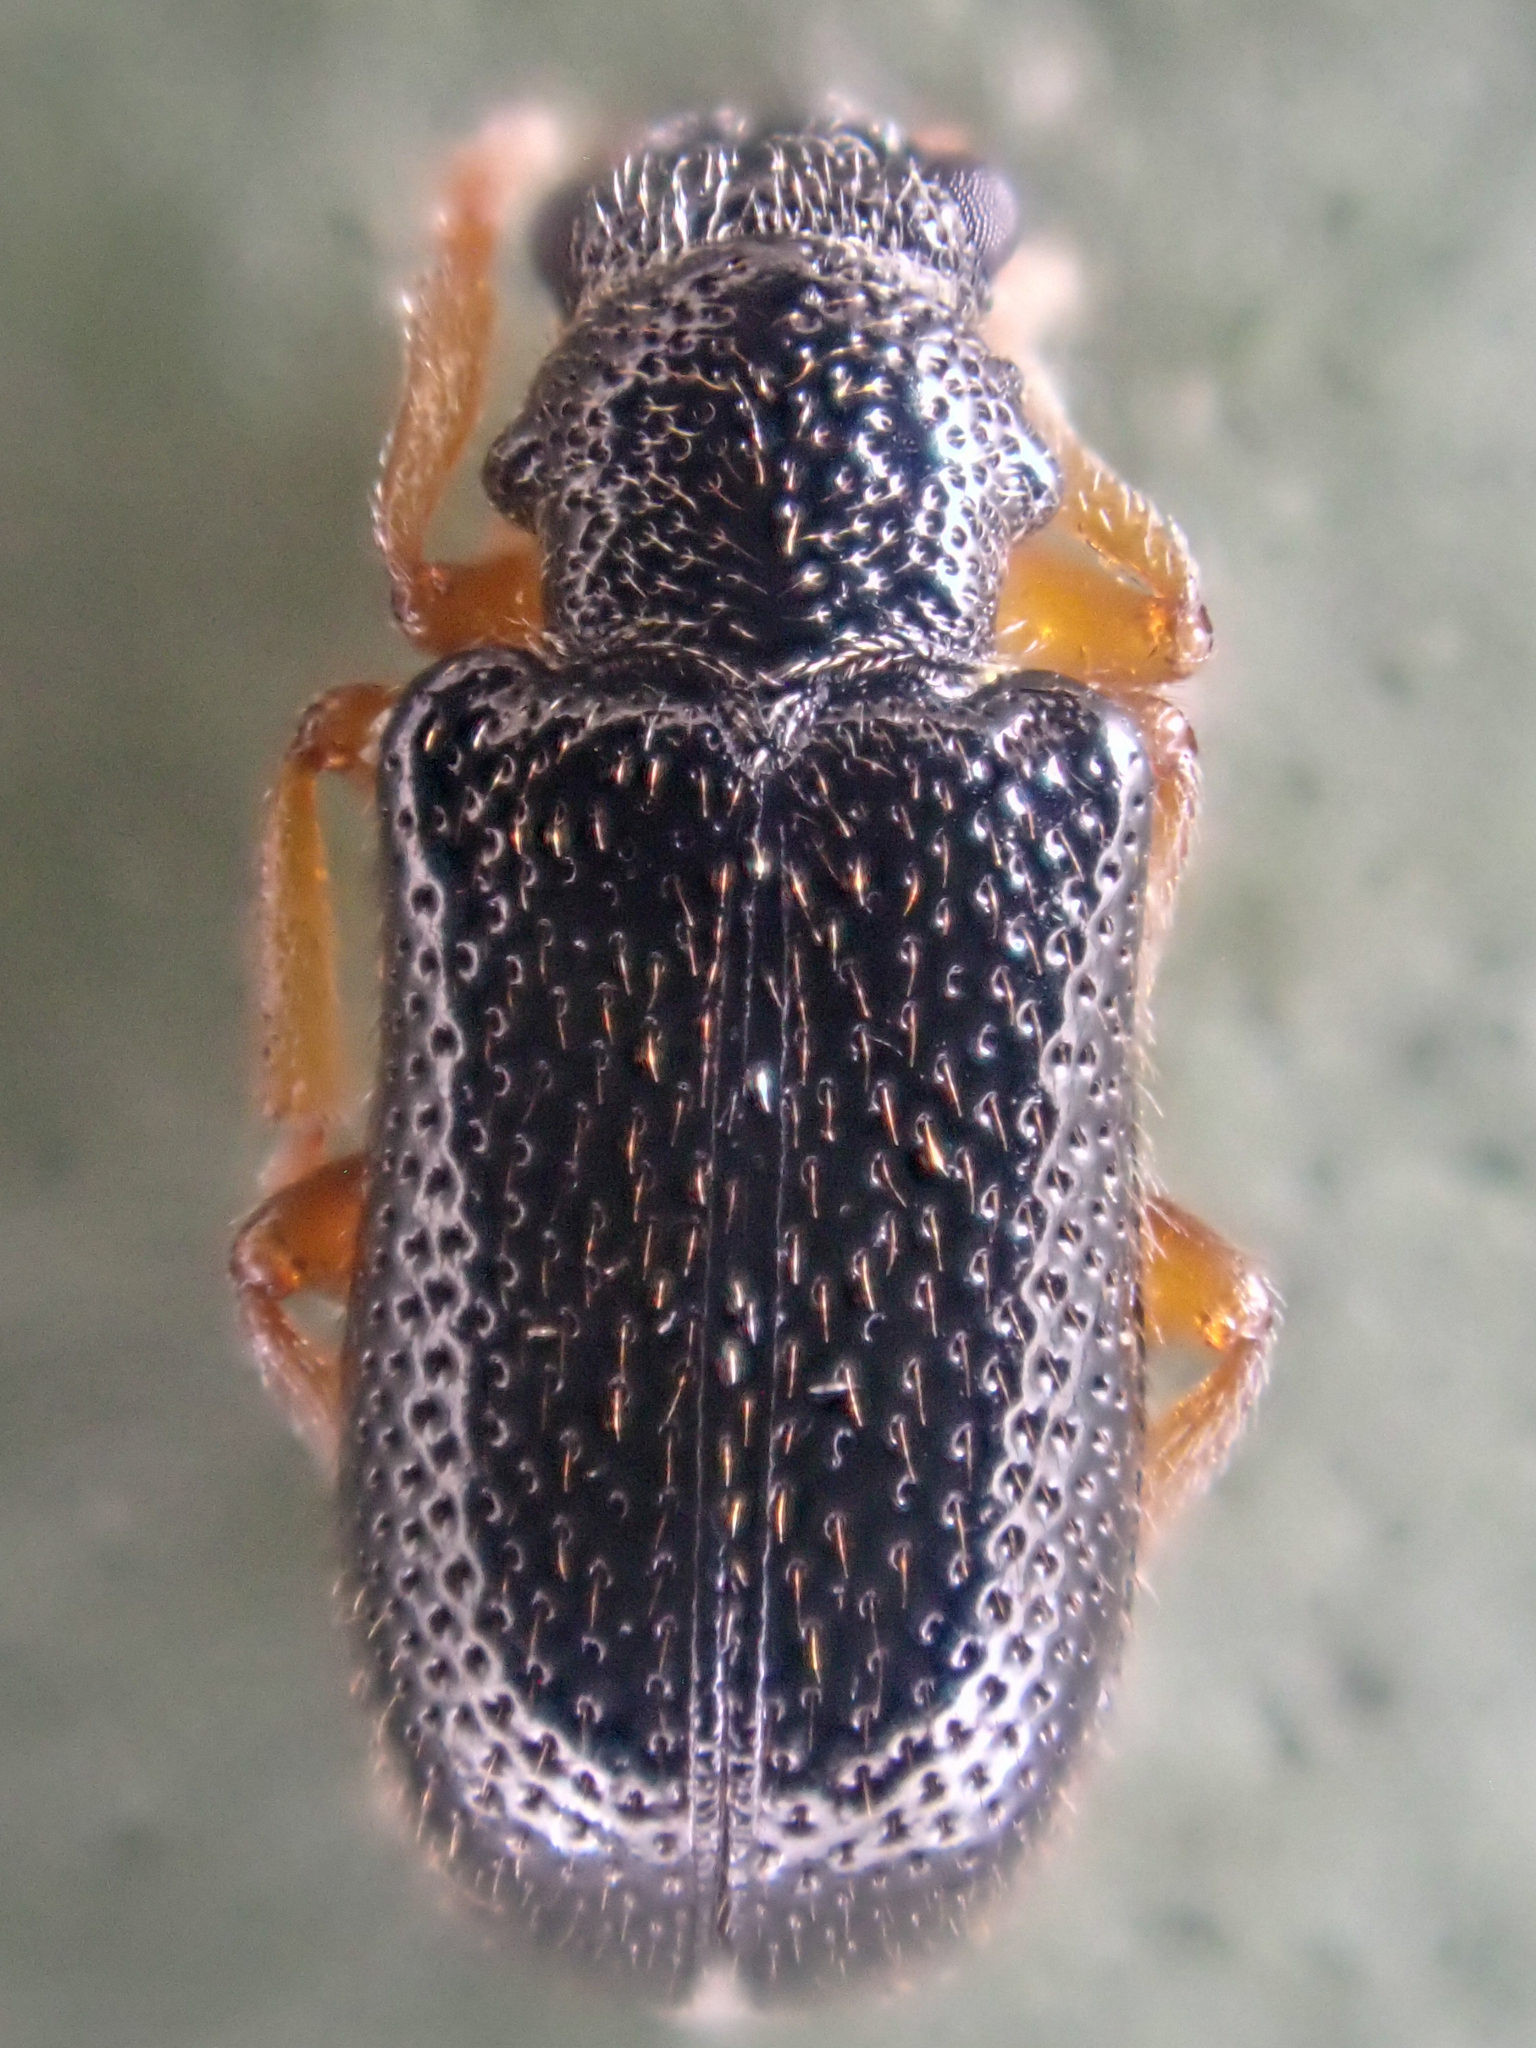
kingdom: Animalia
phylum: Arthropoda
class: Insecta
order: Coleoptera
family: Megalopodidae
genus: Zeugophora
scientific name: Zeugophora atra
